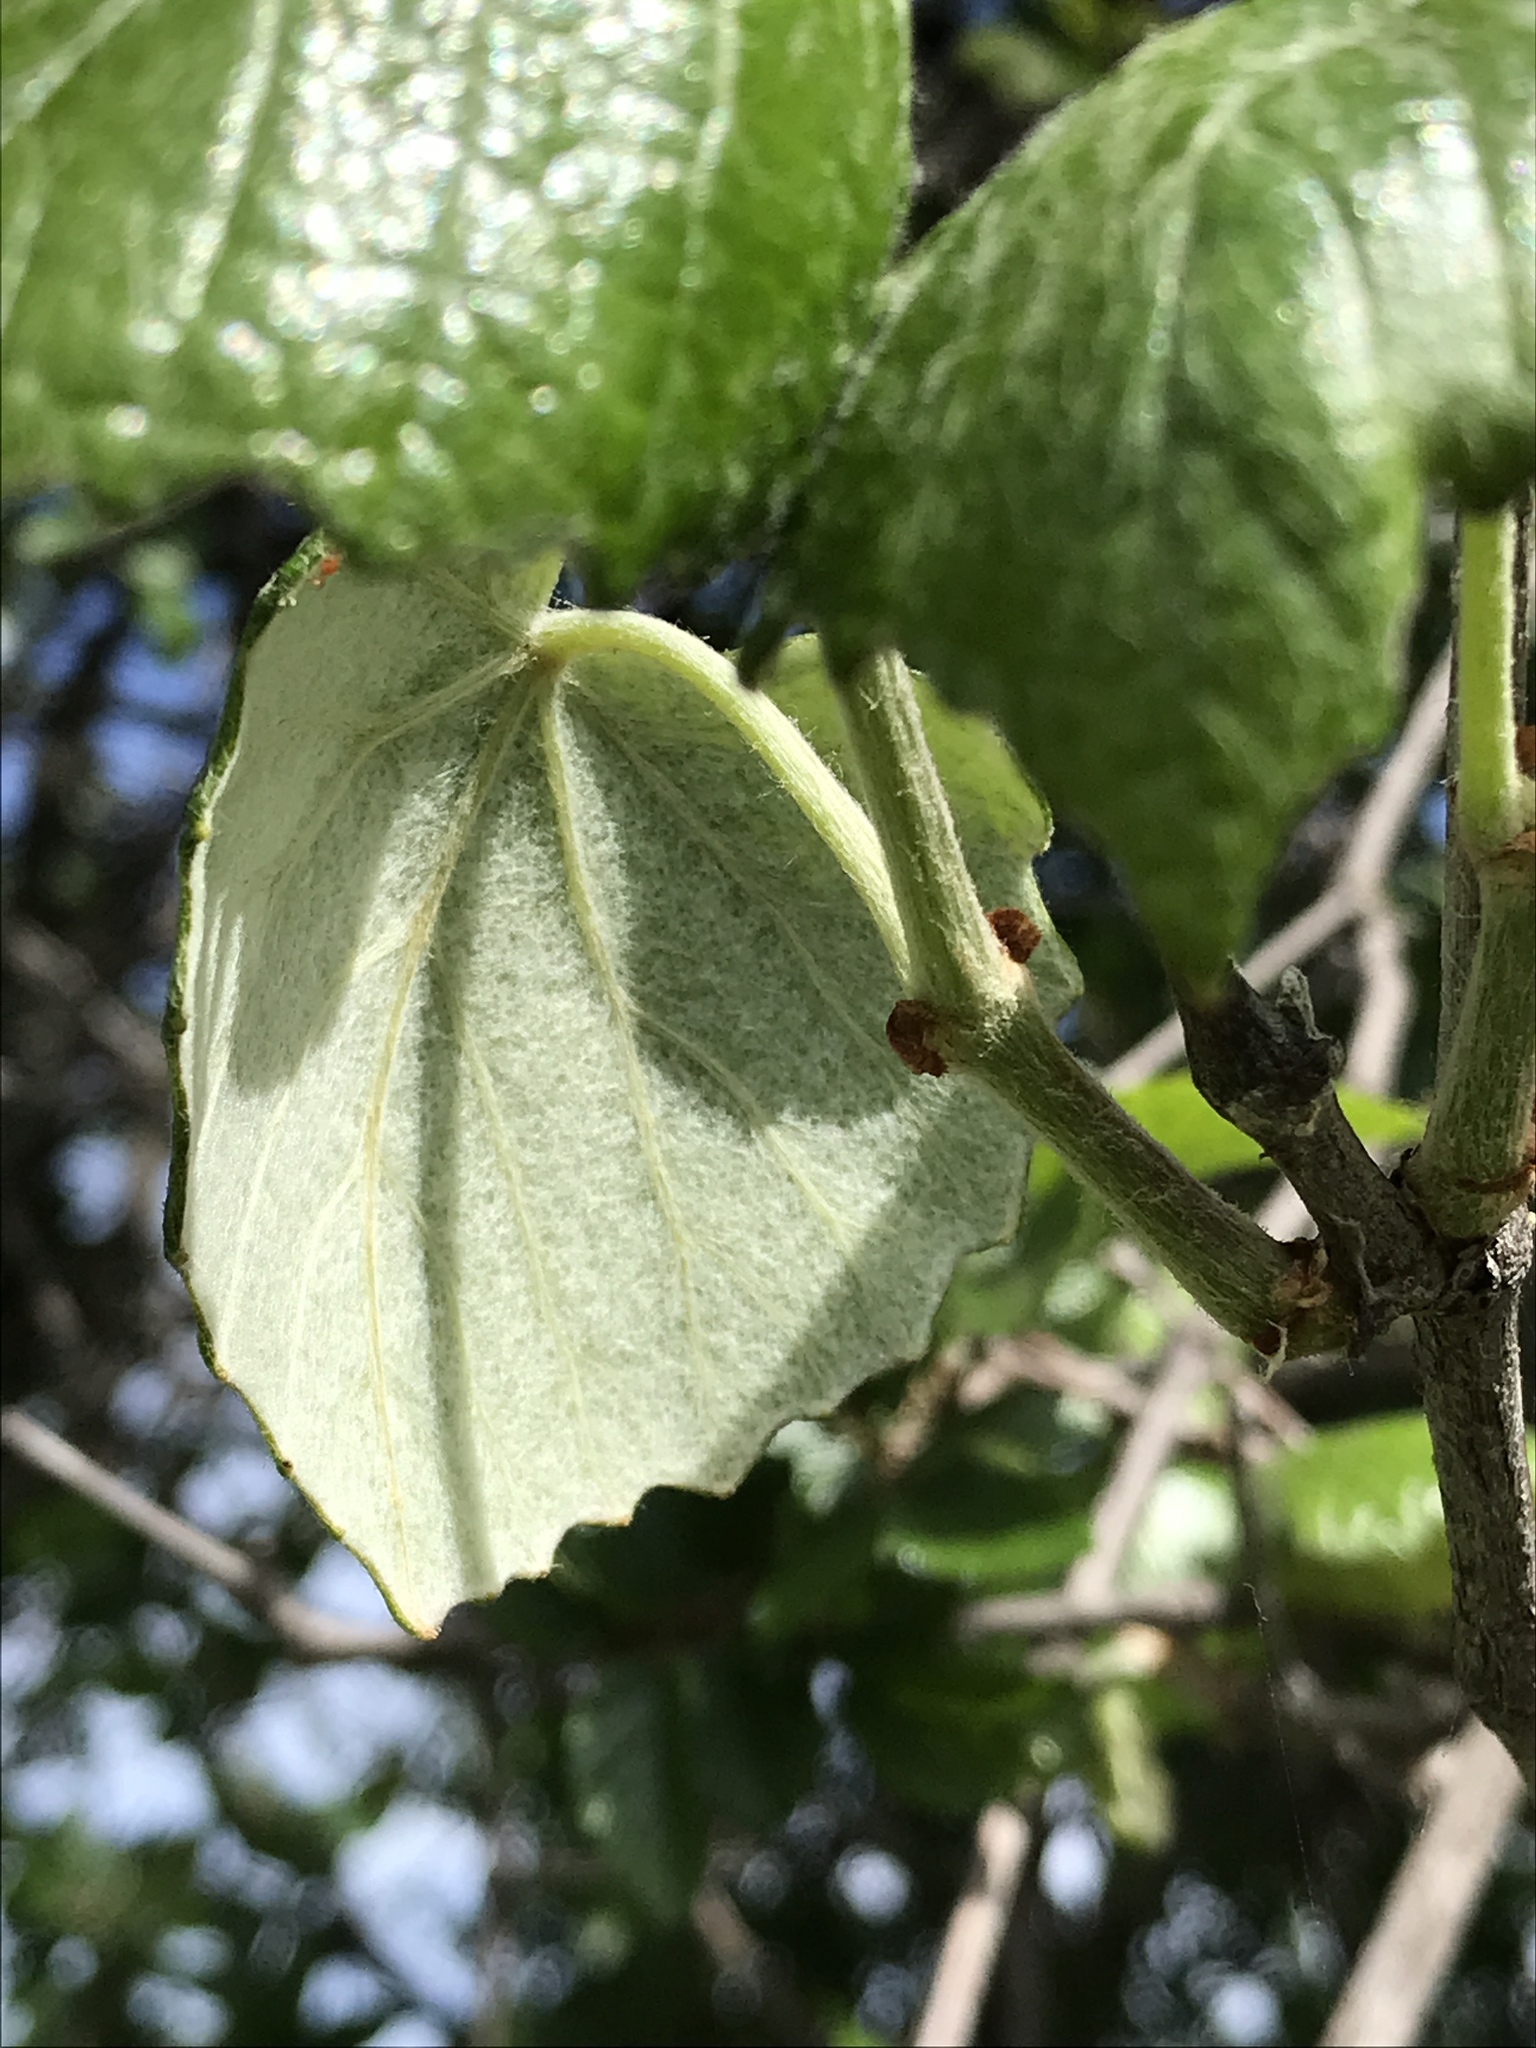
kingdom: Plantae
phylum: Tracheophyta
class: Magnoliopsida
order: Vitales
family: Vitaceae
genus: Vitis
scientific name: Vitis mustangensis
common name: Mustang grape
